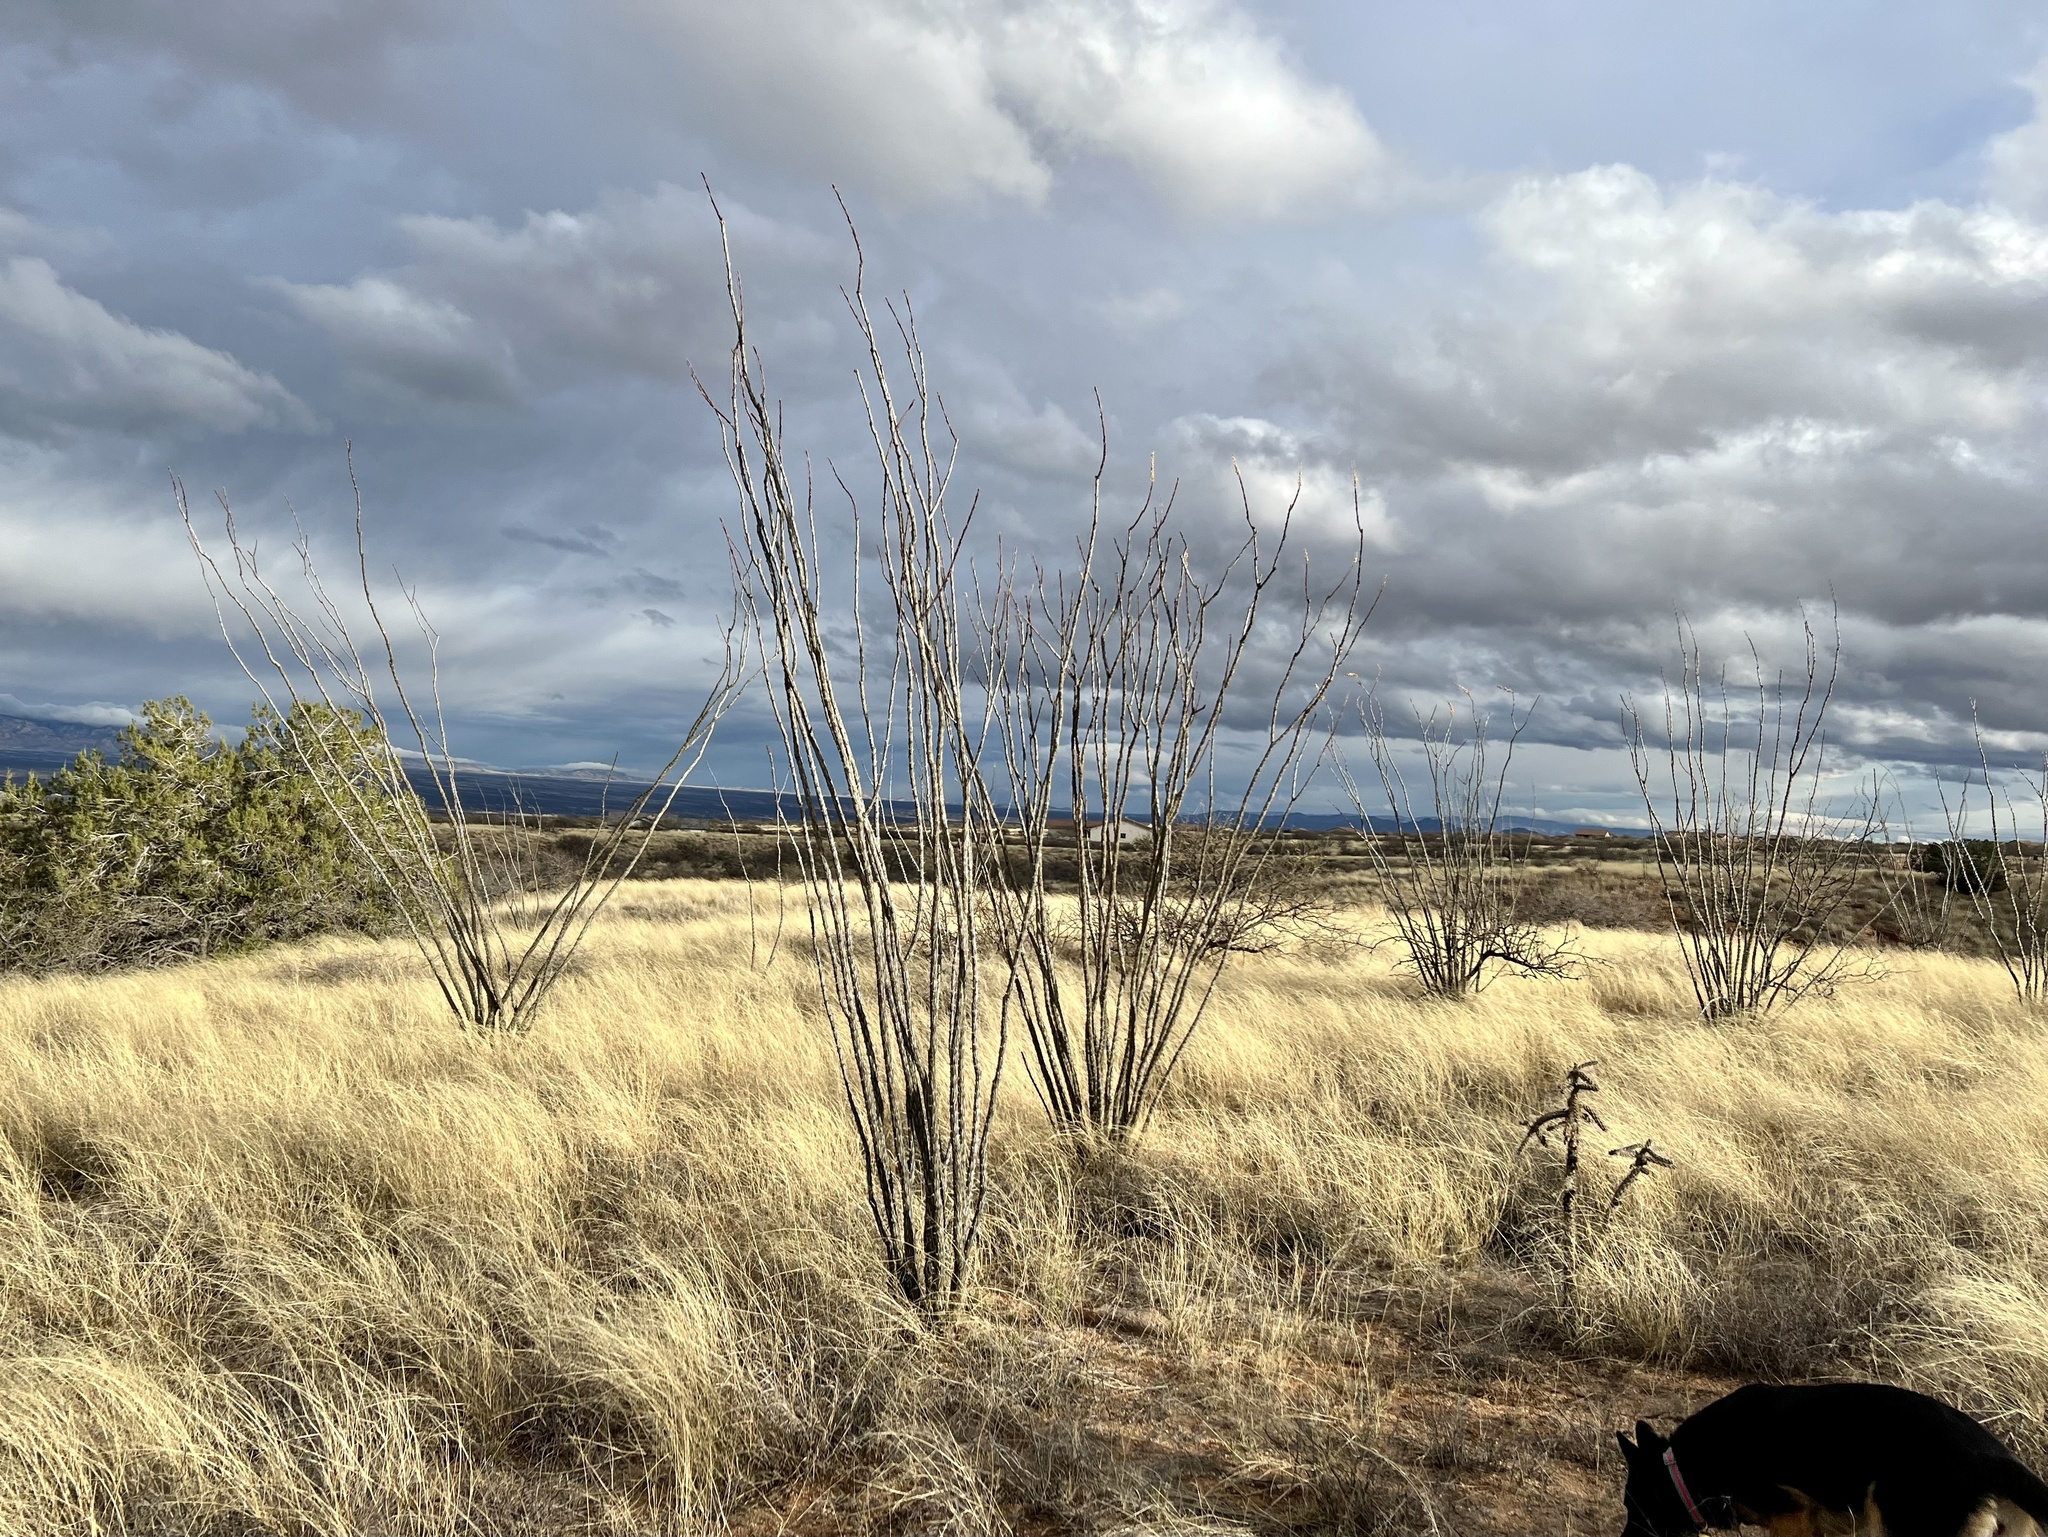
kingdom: Plantae
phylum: Tracheophyta
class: Magnoliopsida
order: Ericales
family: Fouquieriaceae
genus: Fouquieria
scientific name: Fouquieria splendens
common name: Vine-cactus
